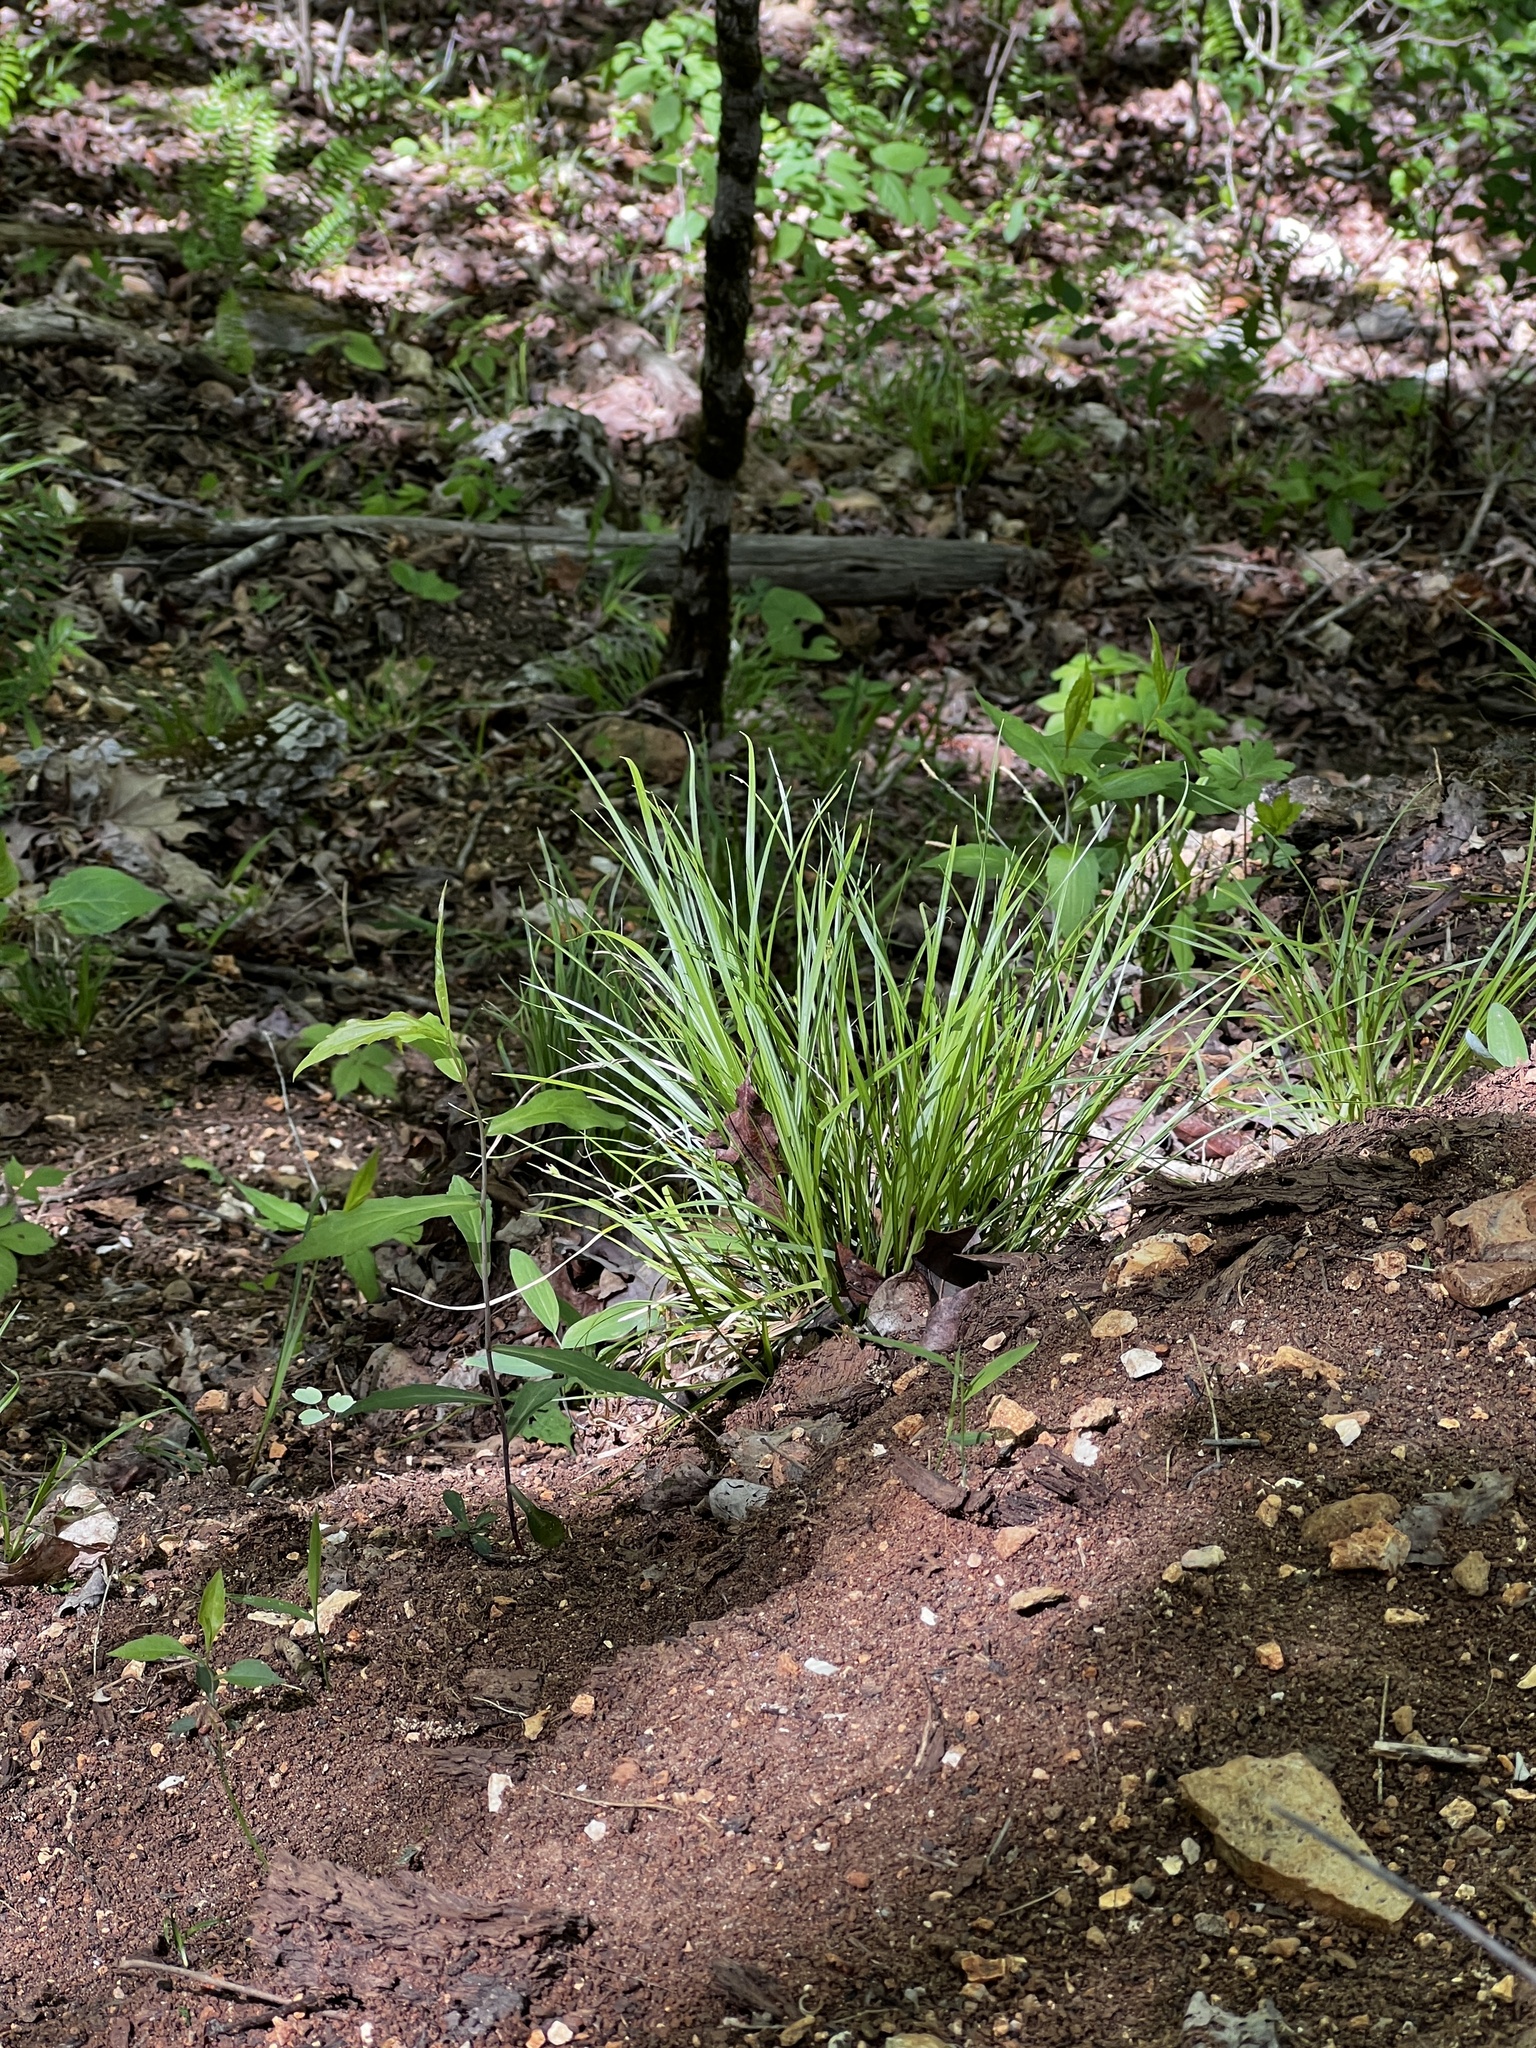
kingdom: Plantae
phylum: Tracheophyta
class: Liliopsida
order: Poales
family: Cyperaceae
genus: Carex
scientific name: Carex timida
